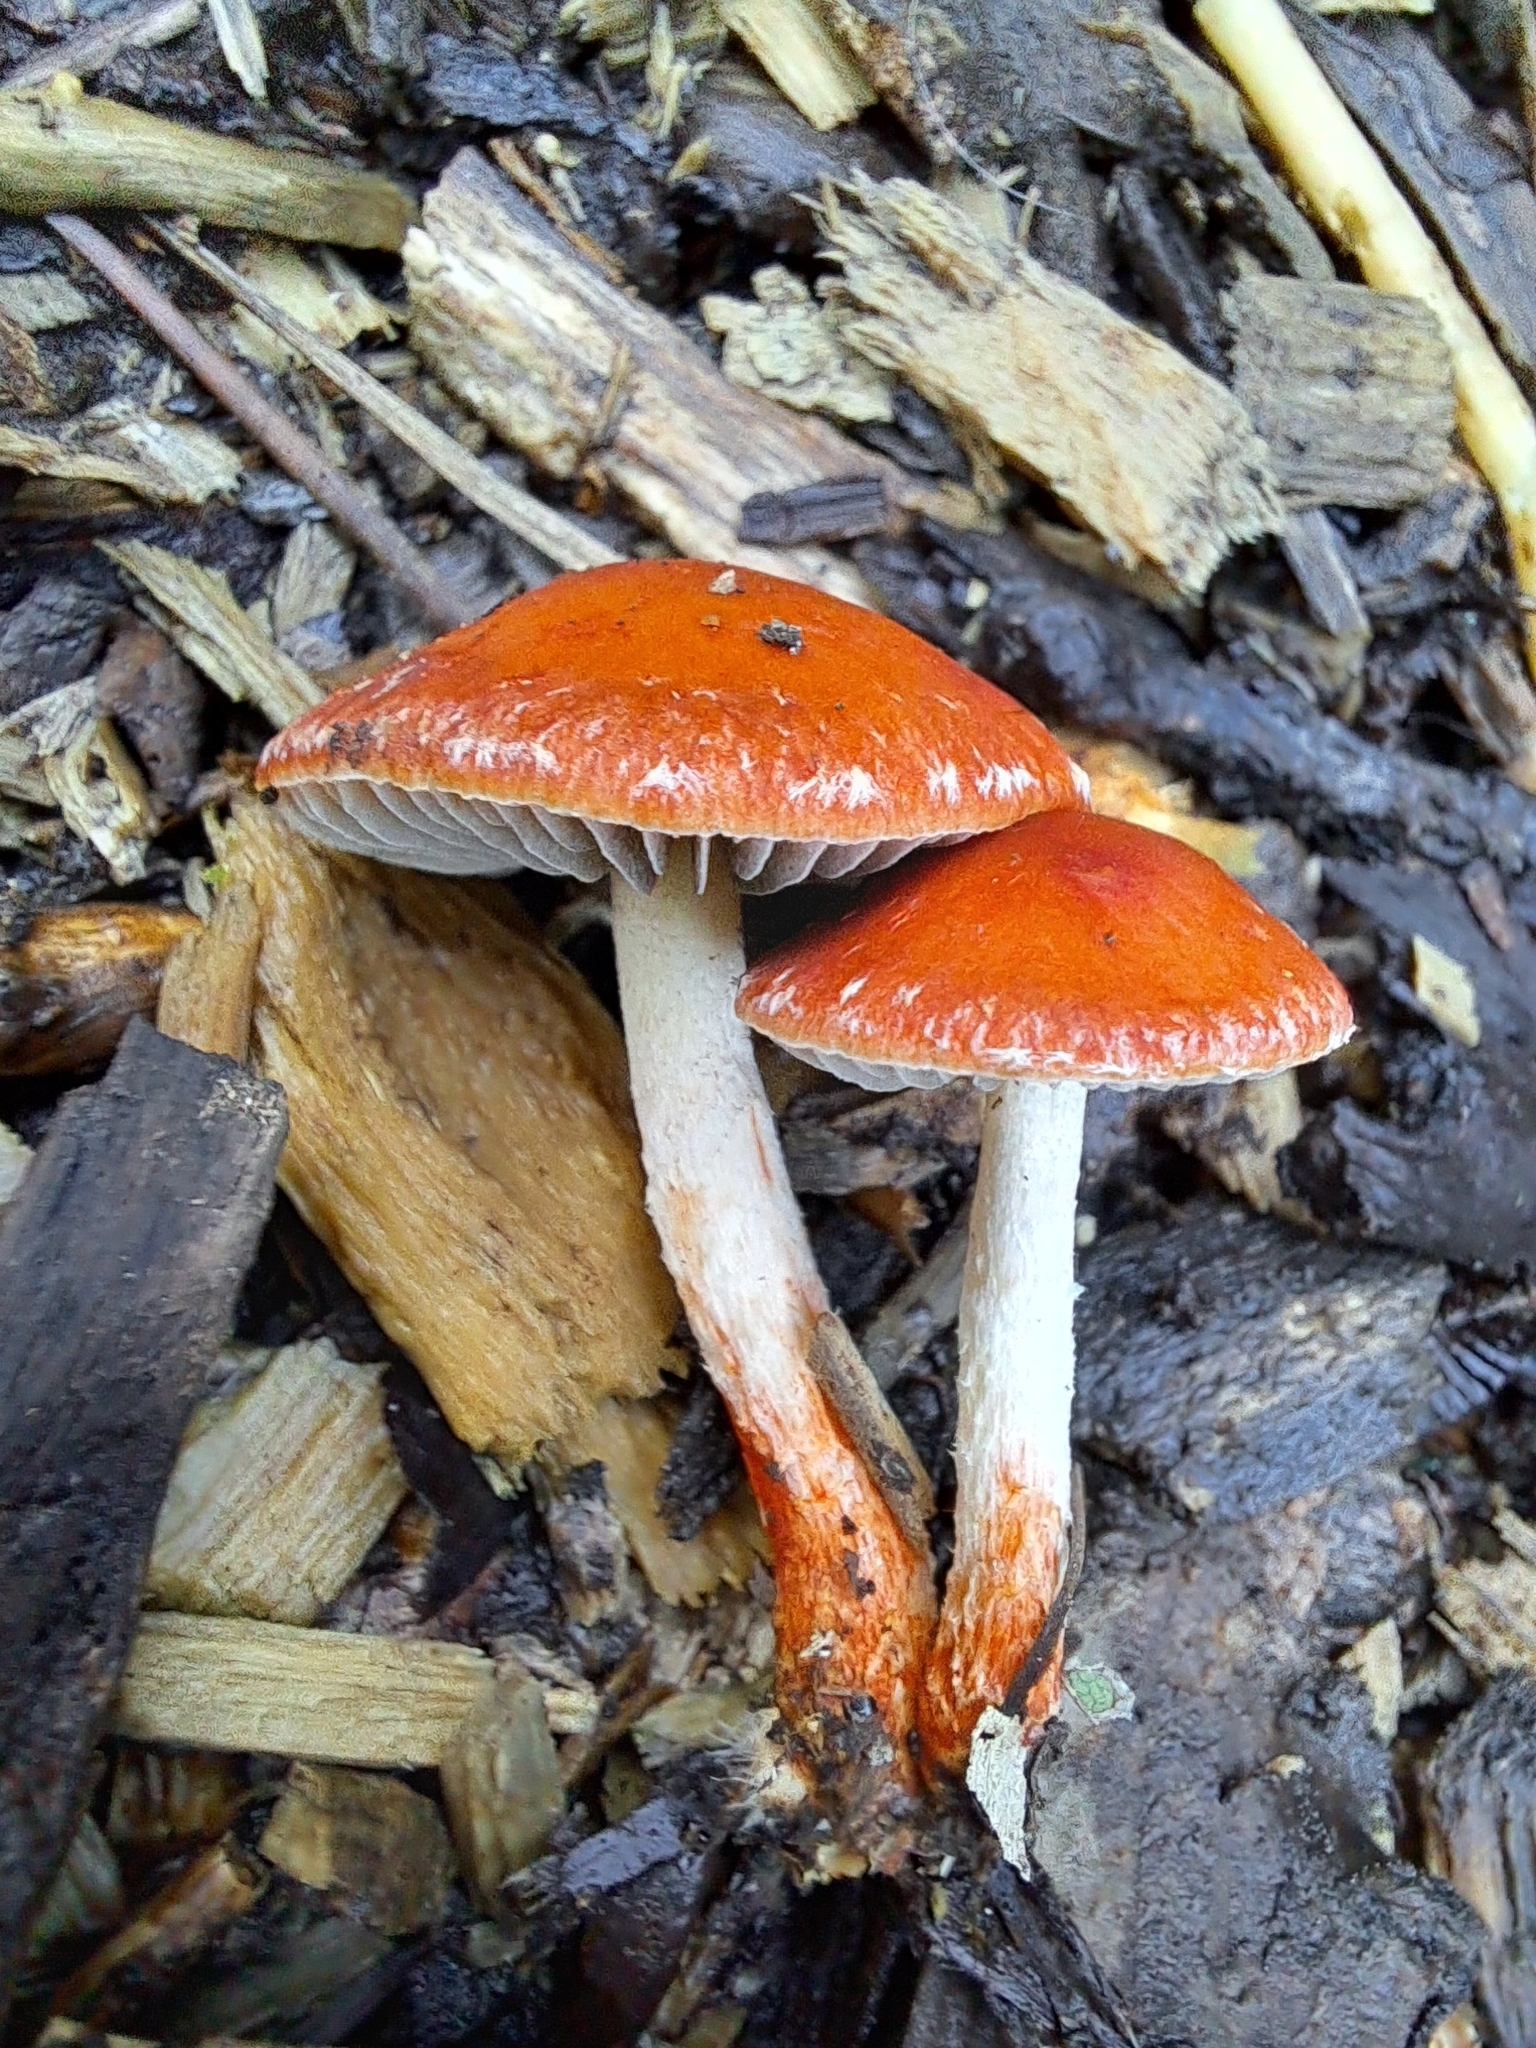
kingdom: Fungi
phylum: Basidiomycota
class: Agaricomycetes
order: Agaricales
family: Strophariaceae
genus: Leratiomyces
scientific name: Leratiomyces ceres
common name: Redlead roundhead
